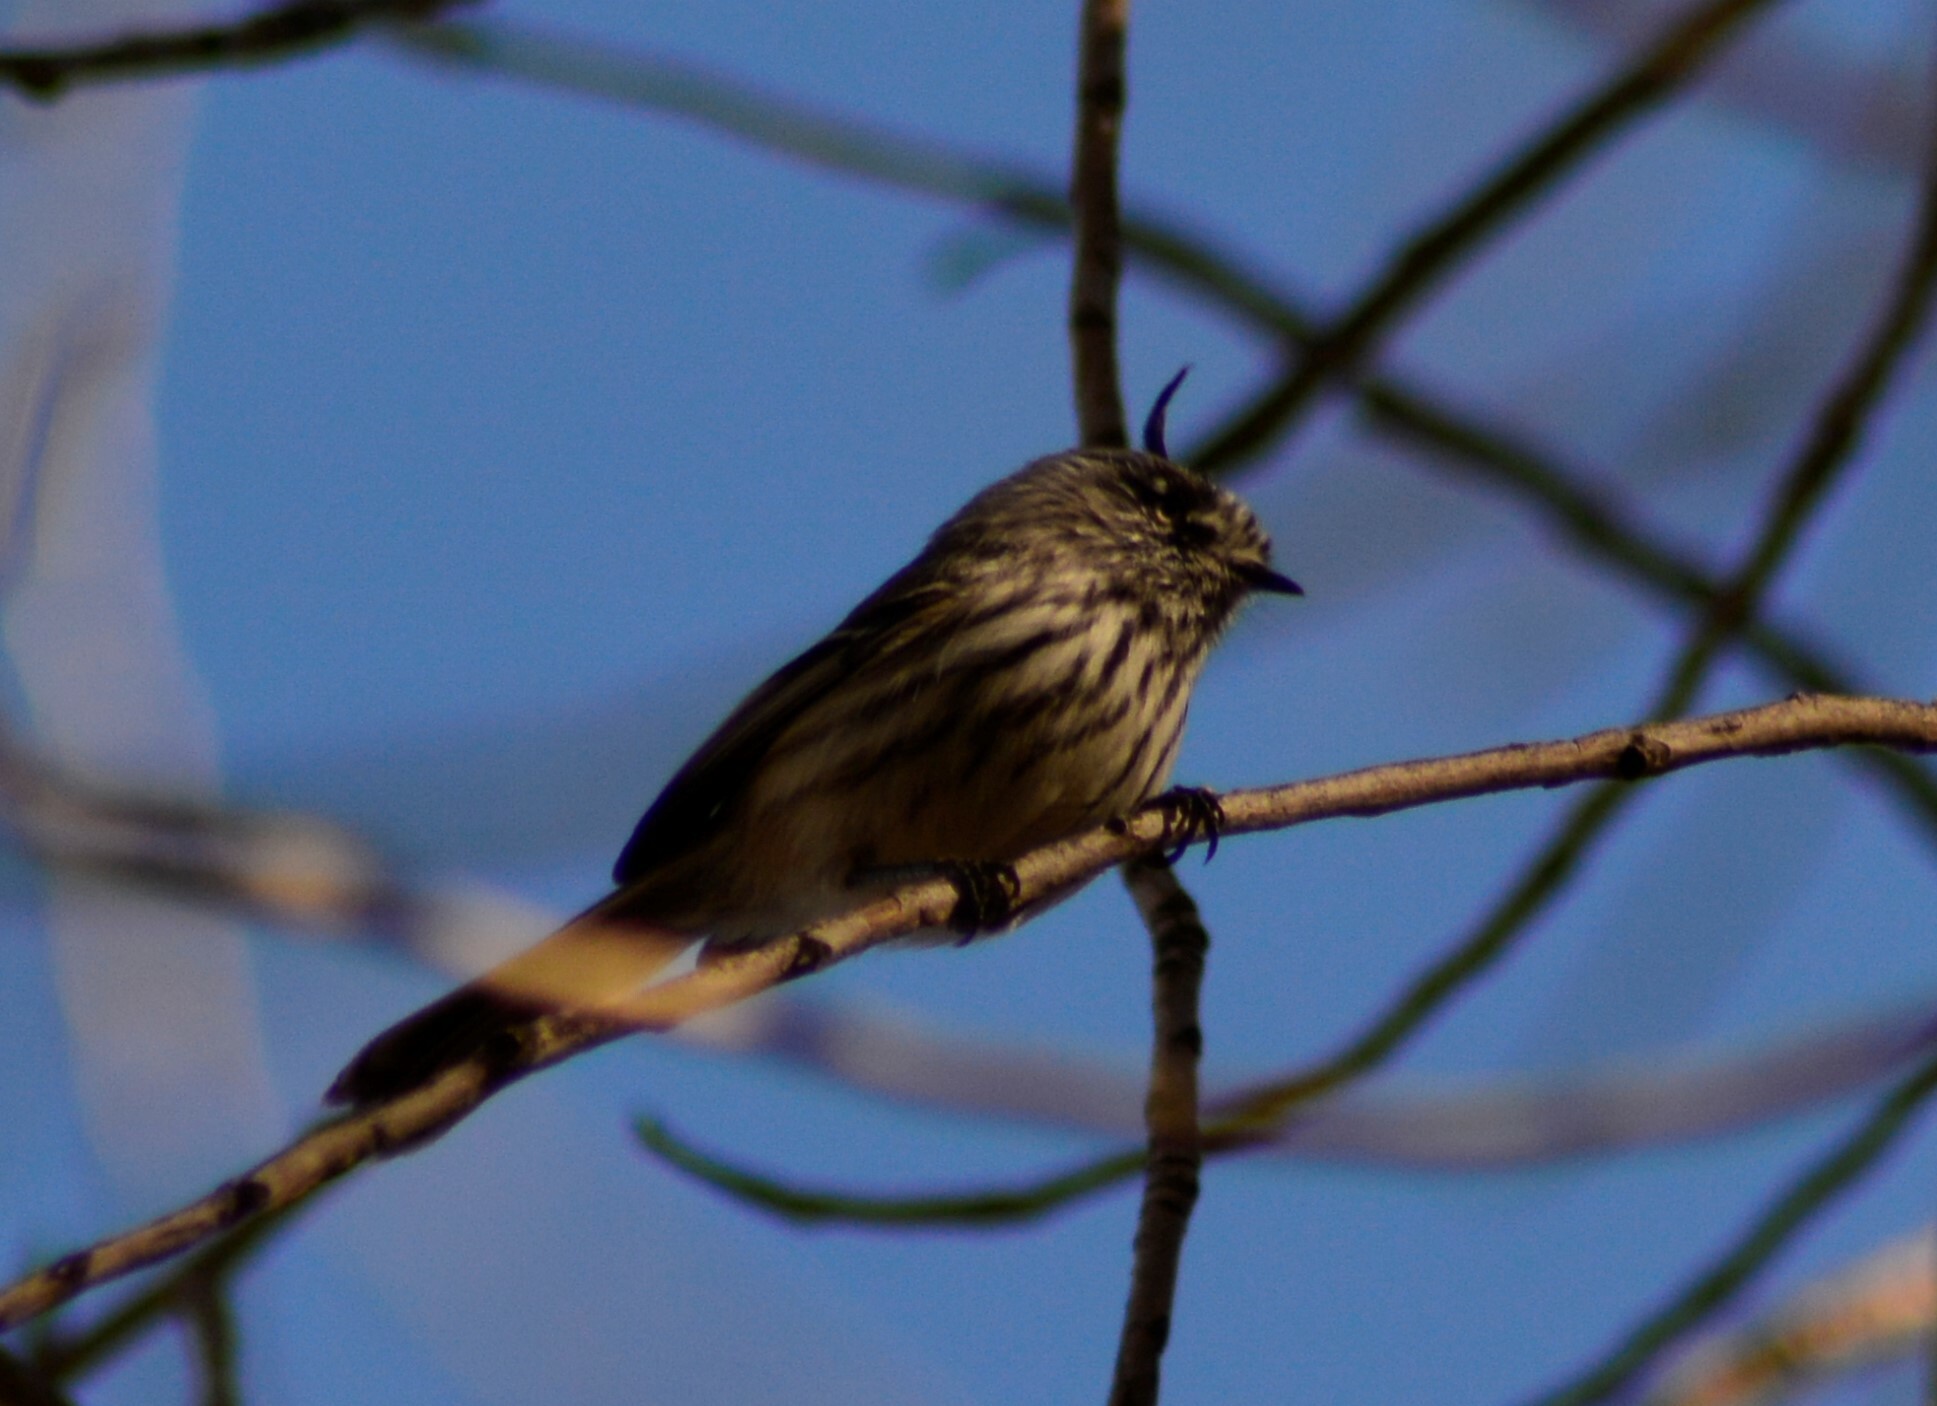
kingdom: Animalia
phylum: Chordata
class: Aves
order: Passeriformes
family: Tyrannidae
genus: Anairetes
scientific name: Anairetes parulus
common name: Tufted tit-tyrant
